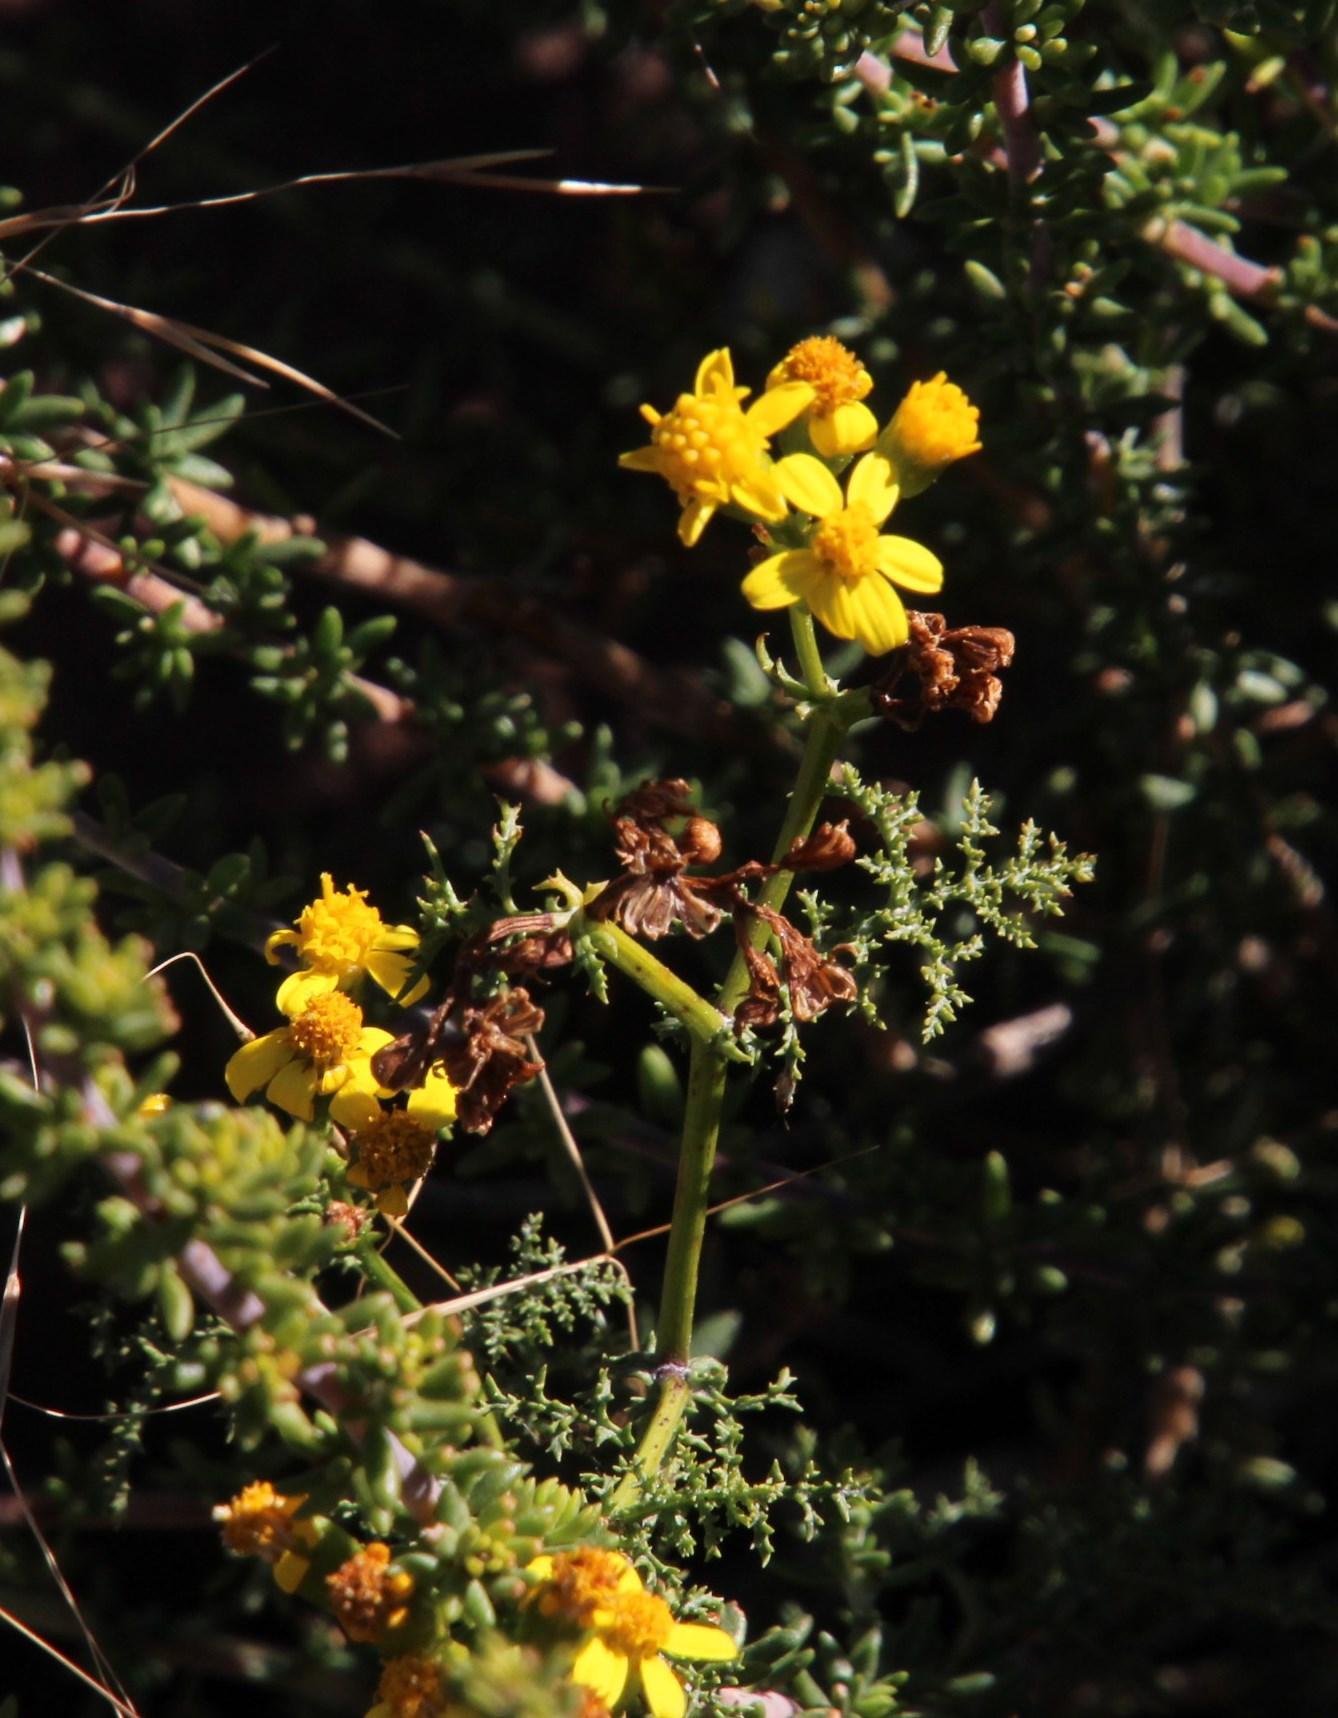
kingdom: Plantae
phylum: Tracheophyta
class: Magnoliopsida
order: Asterales
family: Asteraceae
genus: Cineraria
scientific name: Cineraria aspera
